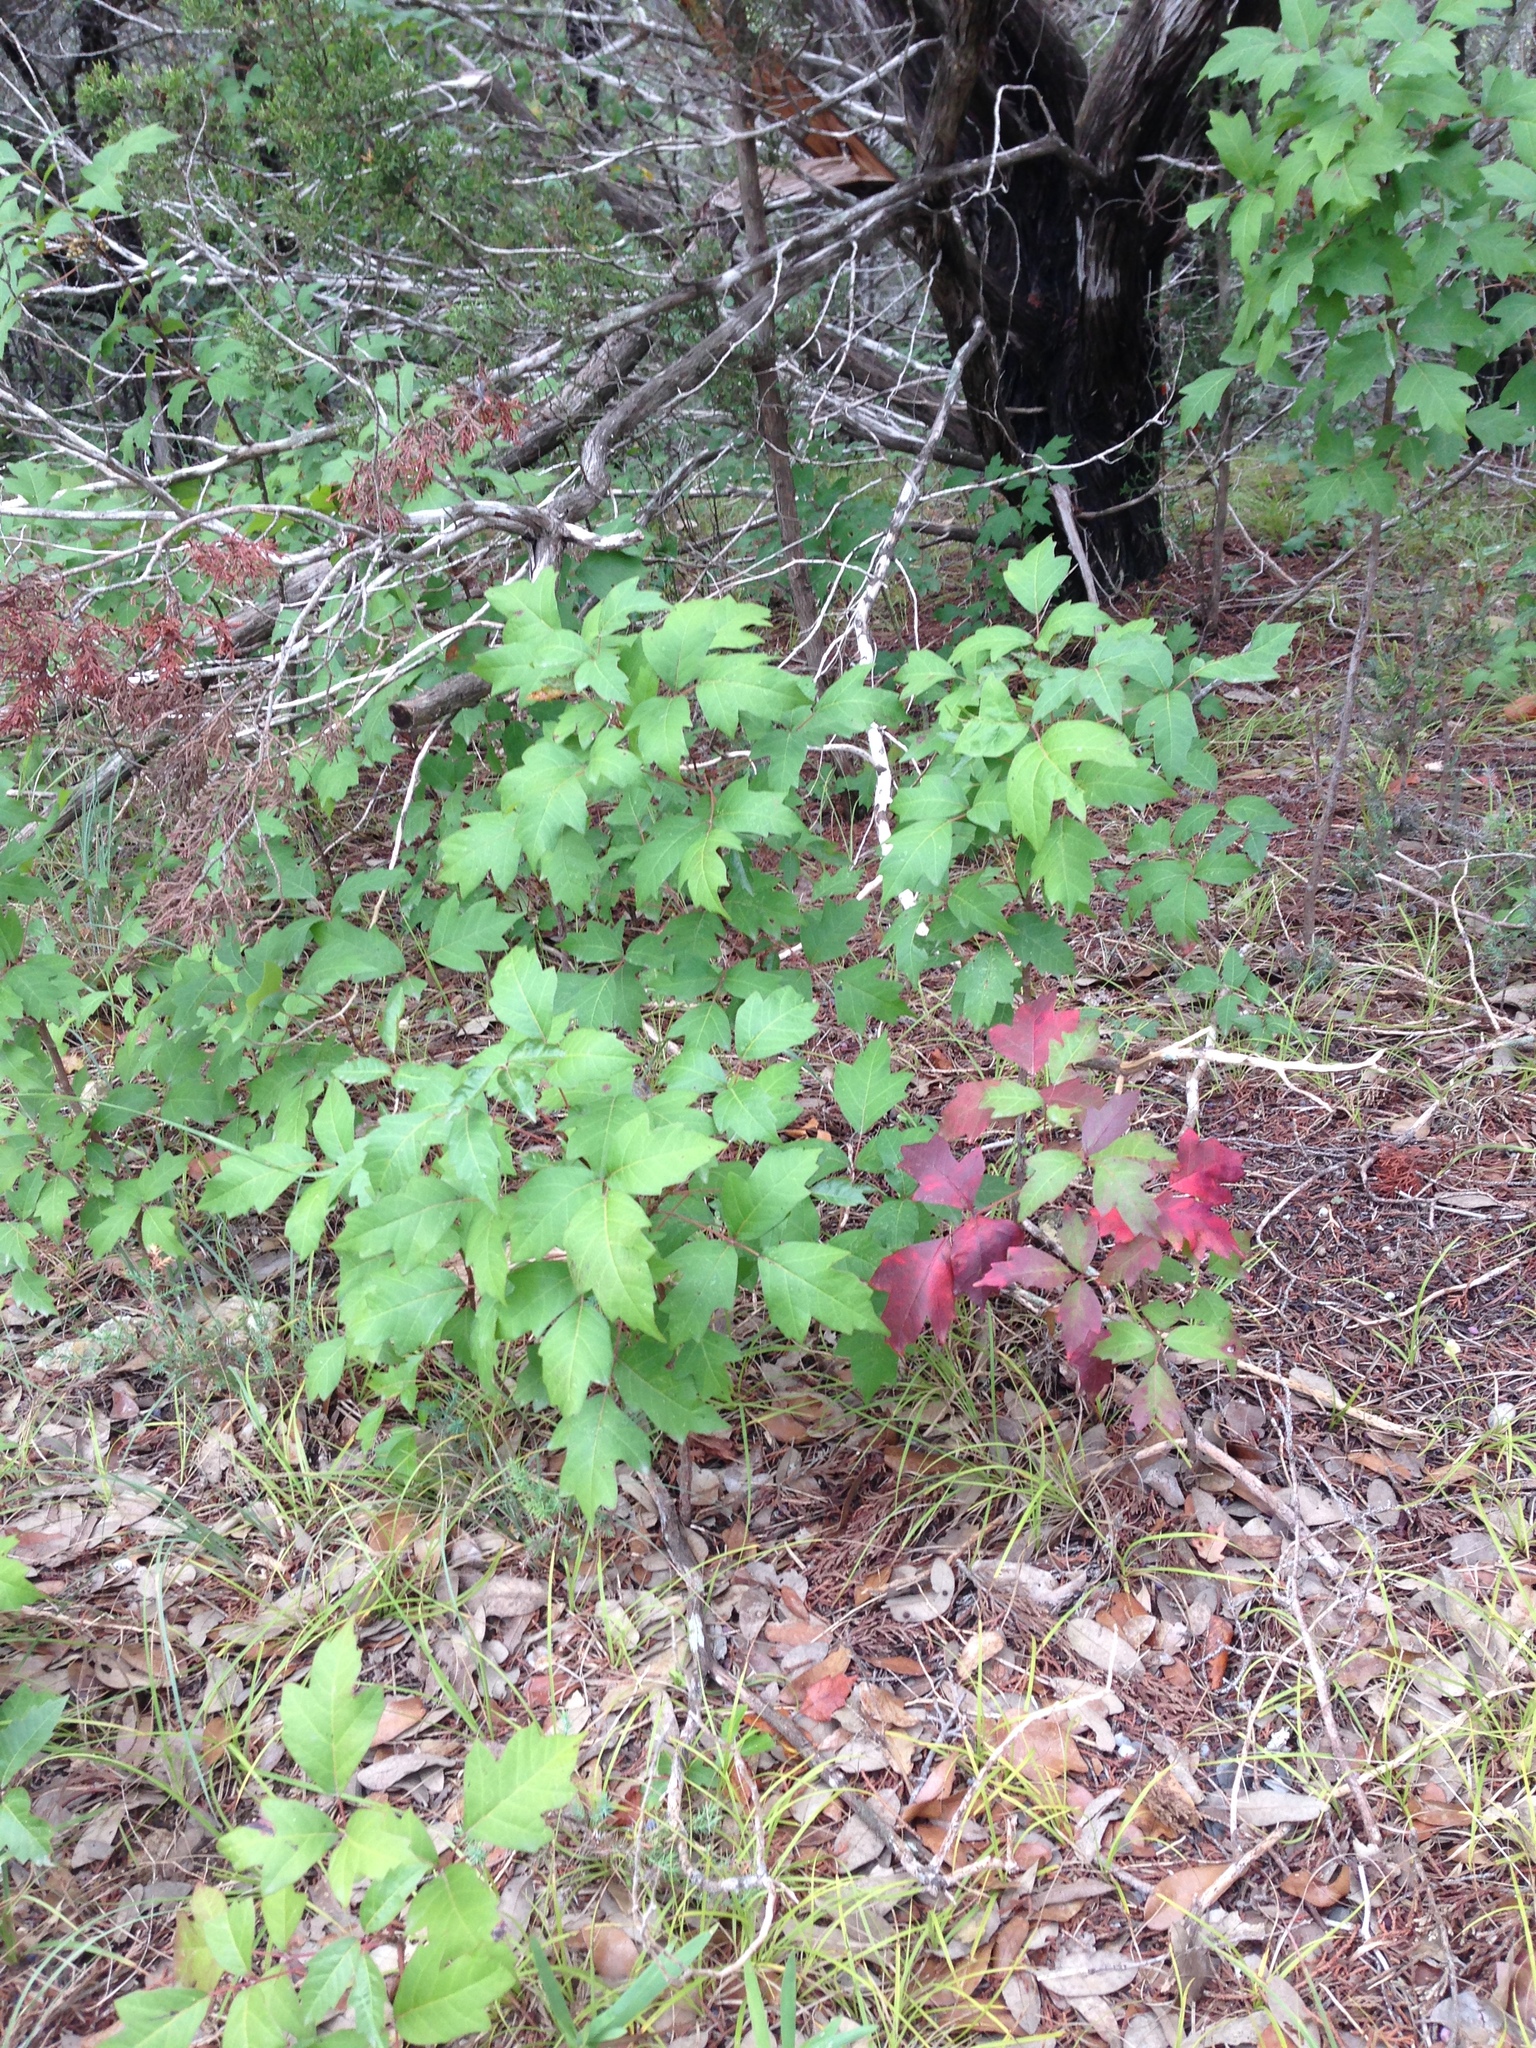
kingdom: Plantae
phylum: Tracheophyta
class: Magnoliopsida
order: Sapindales
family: Anacardiaceae
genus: Toxicodendron
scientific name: Toxicodendron radicans
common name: Poison ivy
